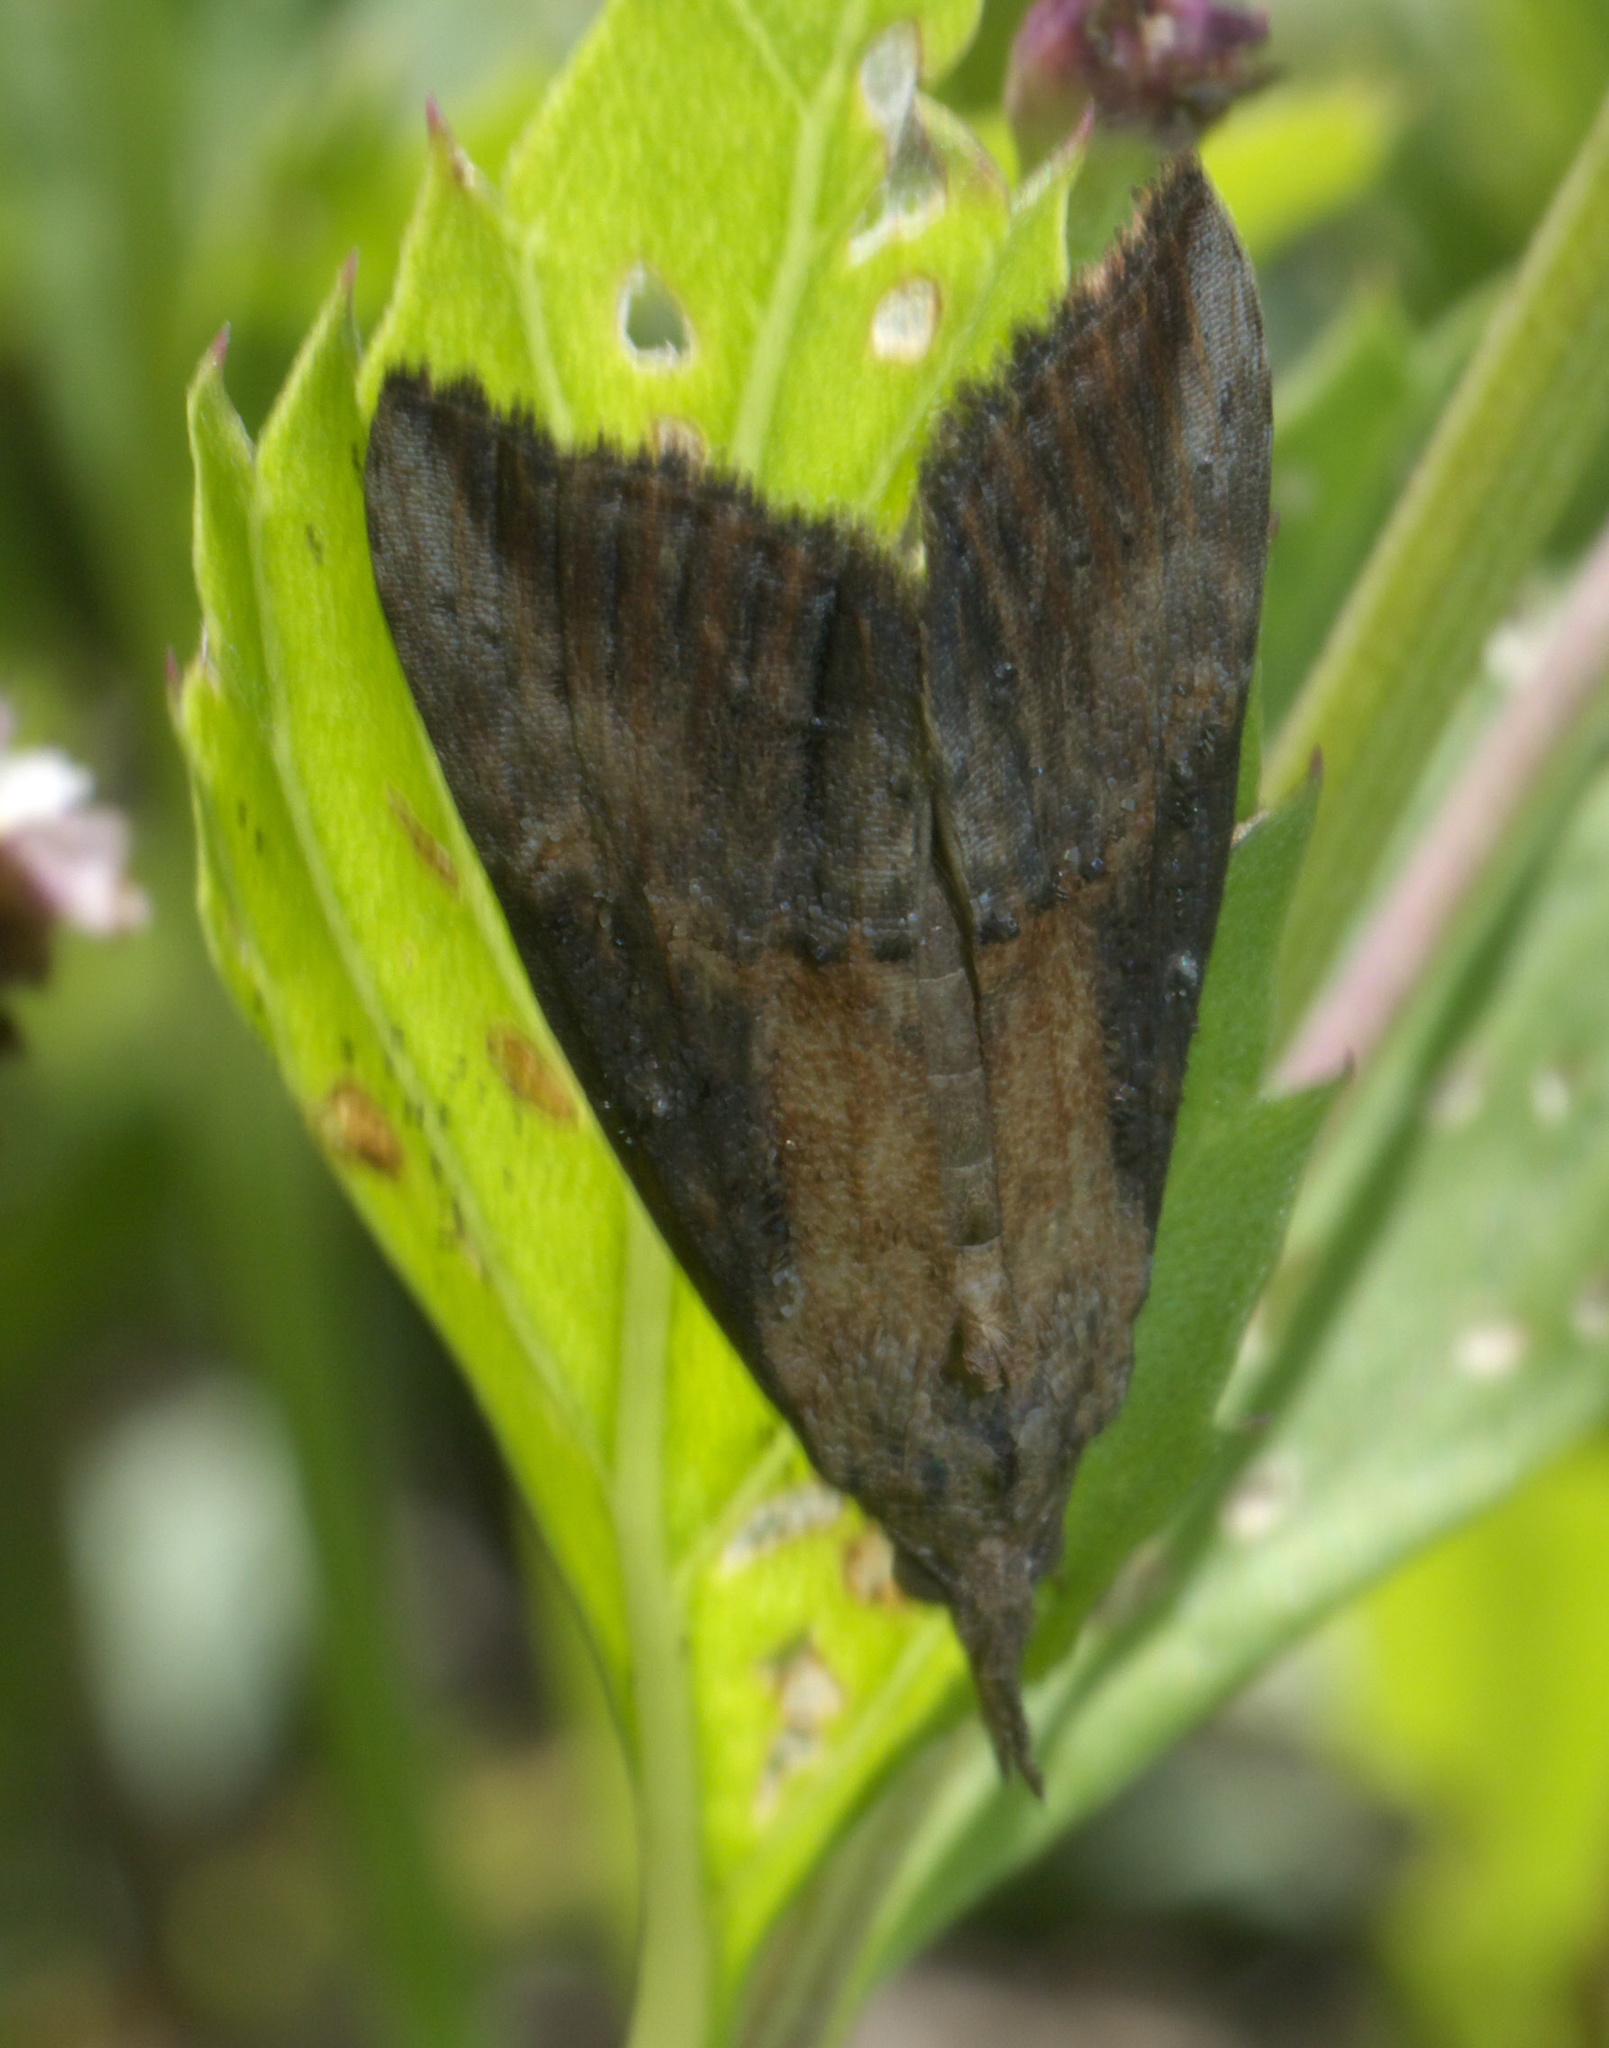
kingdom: Animalia
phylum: Arthropoda
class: Insecta
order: Lepidoptera
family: Erebidae
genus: Hypena
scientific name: Hypena scabra
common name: Green cloverworm
